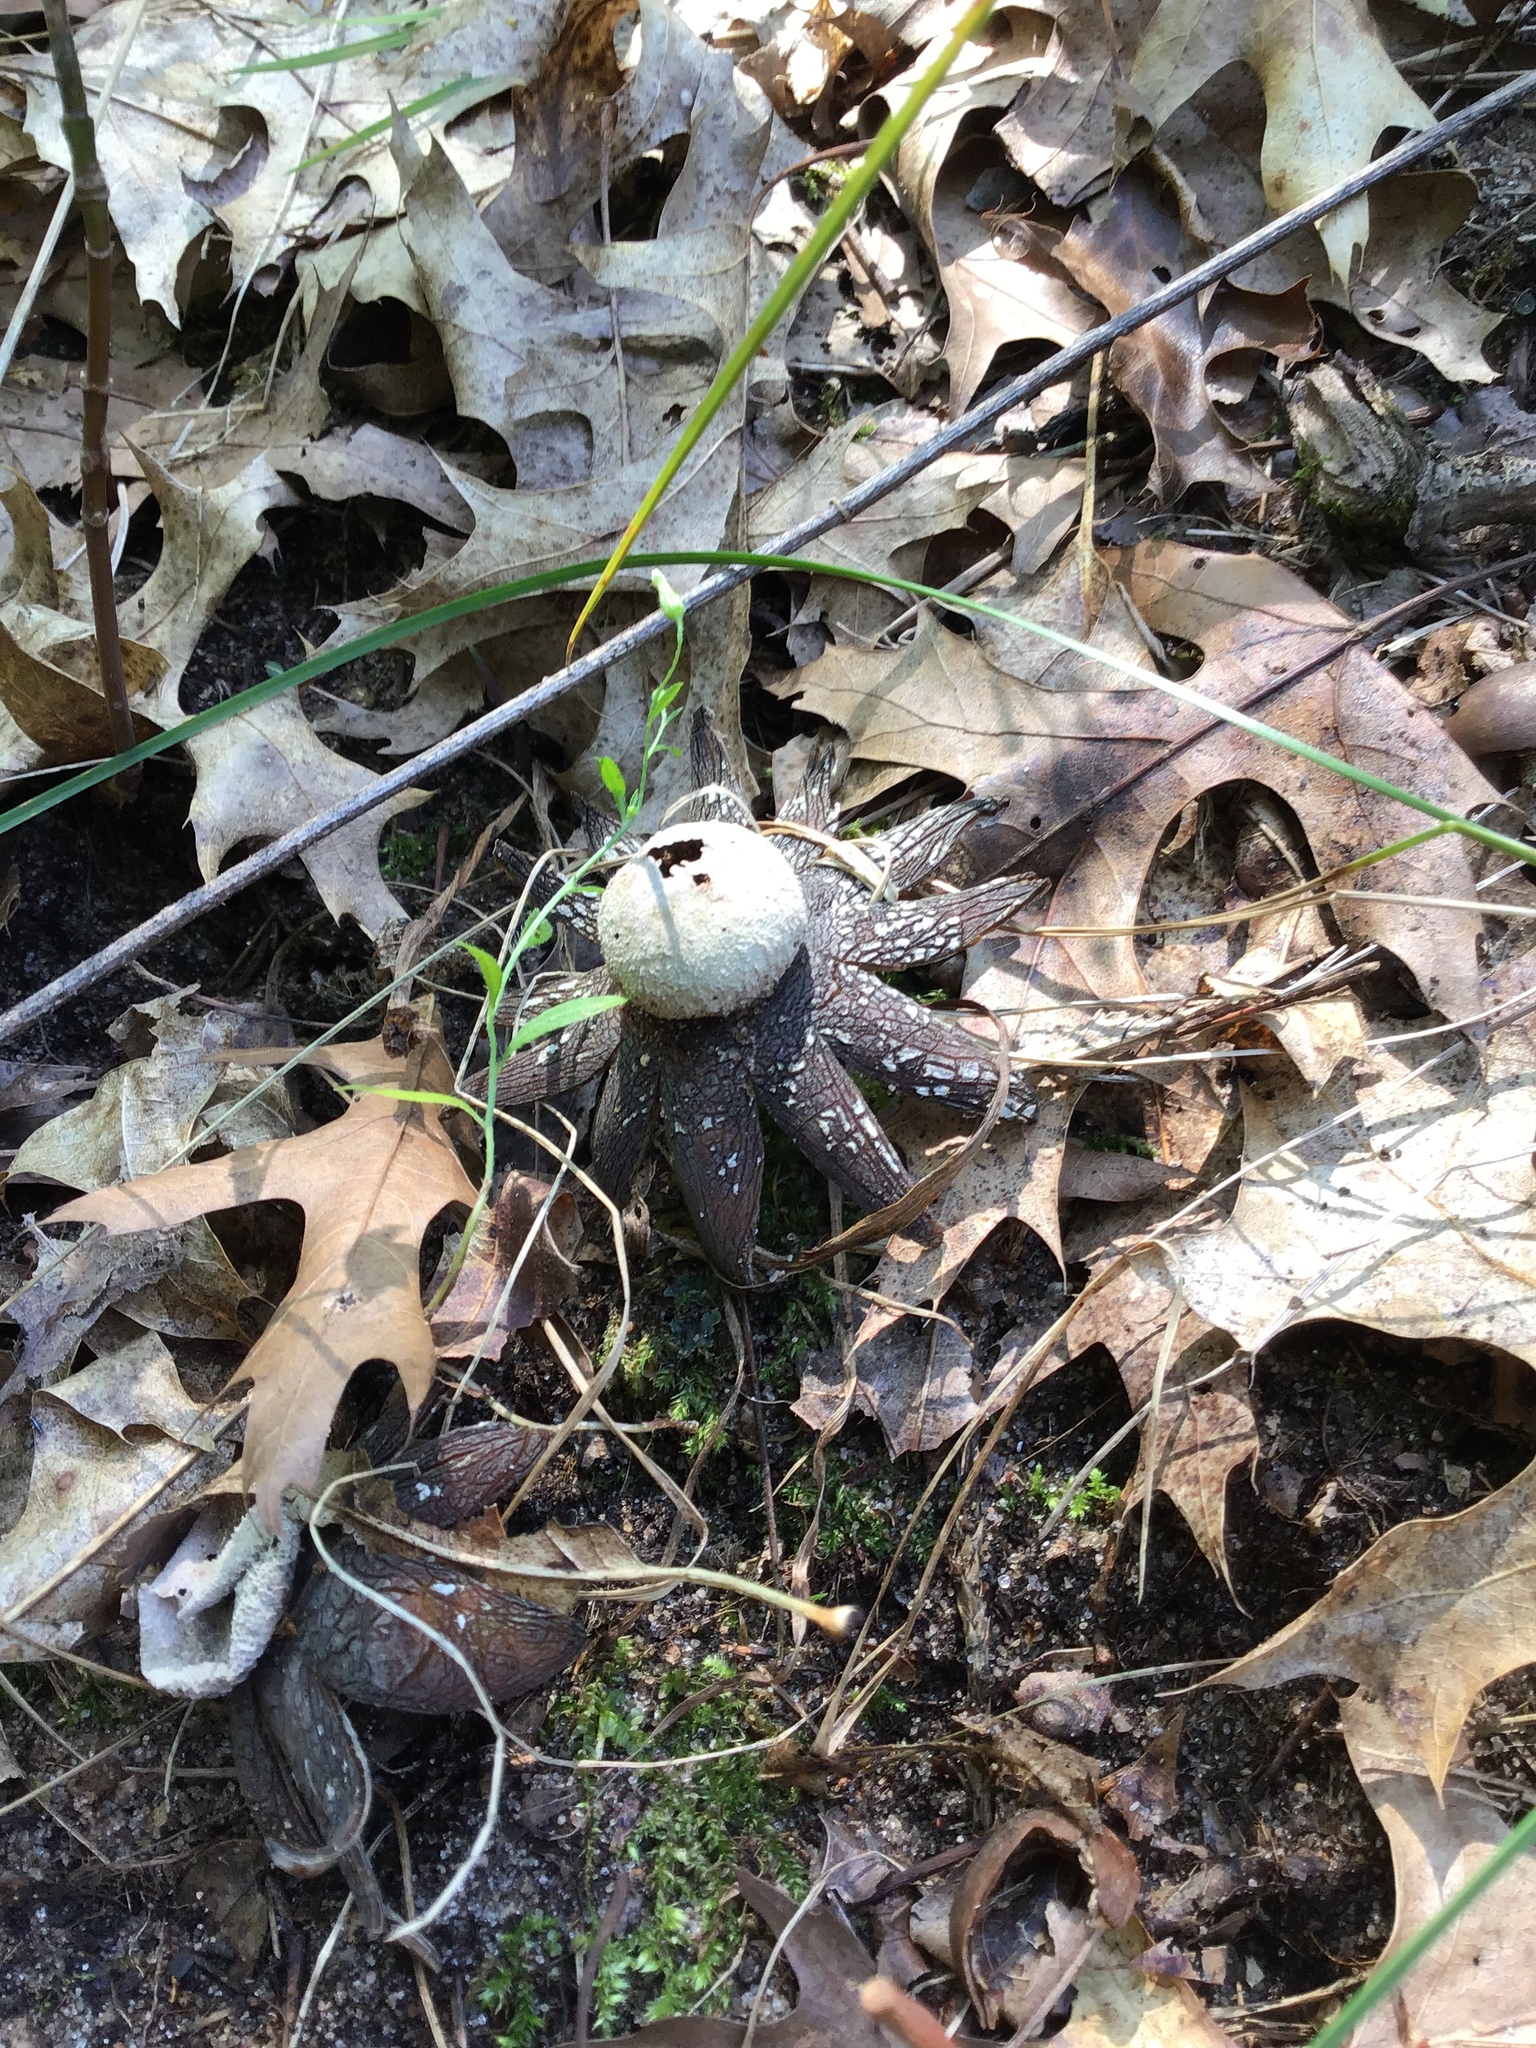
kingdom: Fungi
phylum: Basidiomycota
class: Agaricomycetes
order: Boletales
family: Diplocystidiaceae
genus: Astraeus
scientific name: Astraeus smithii
